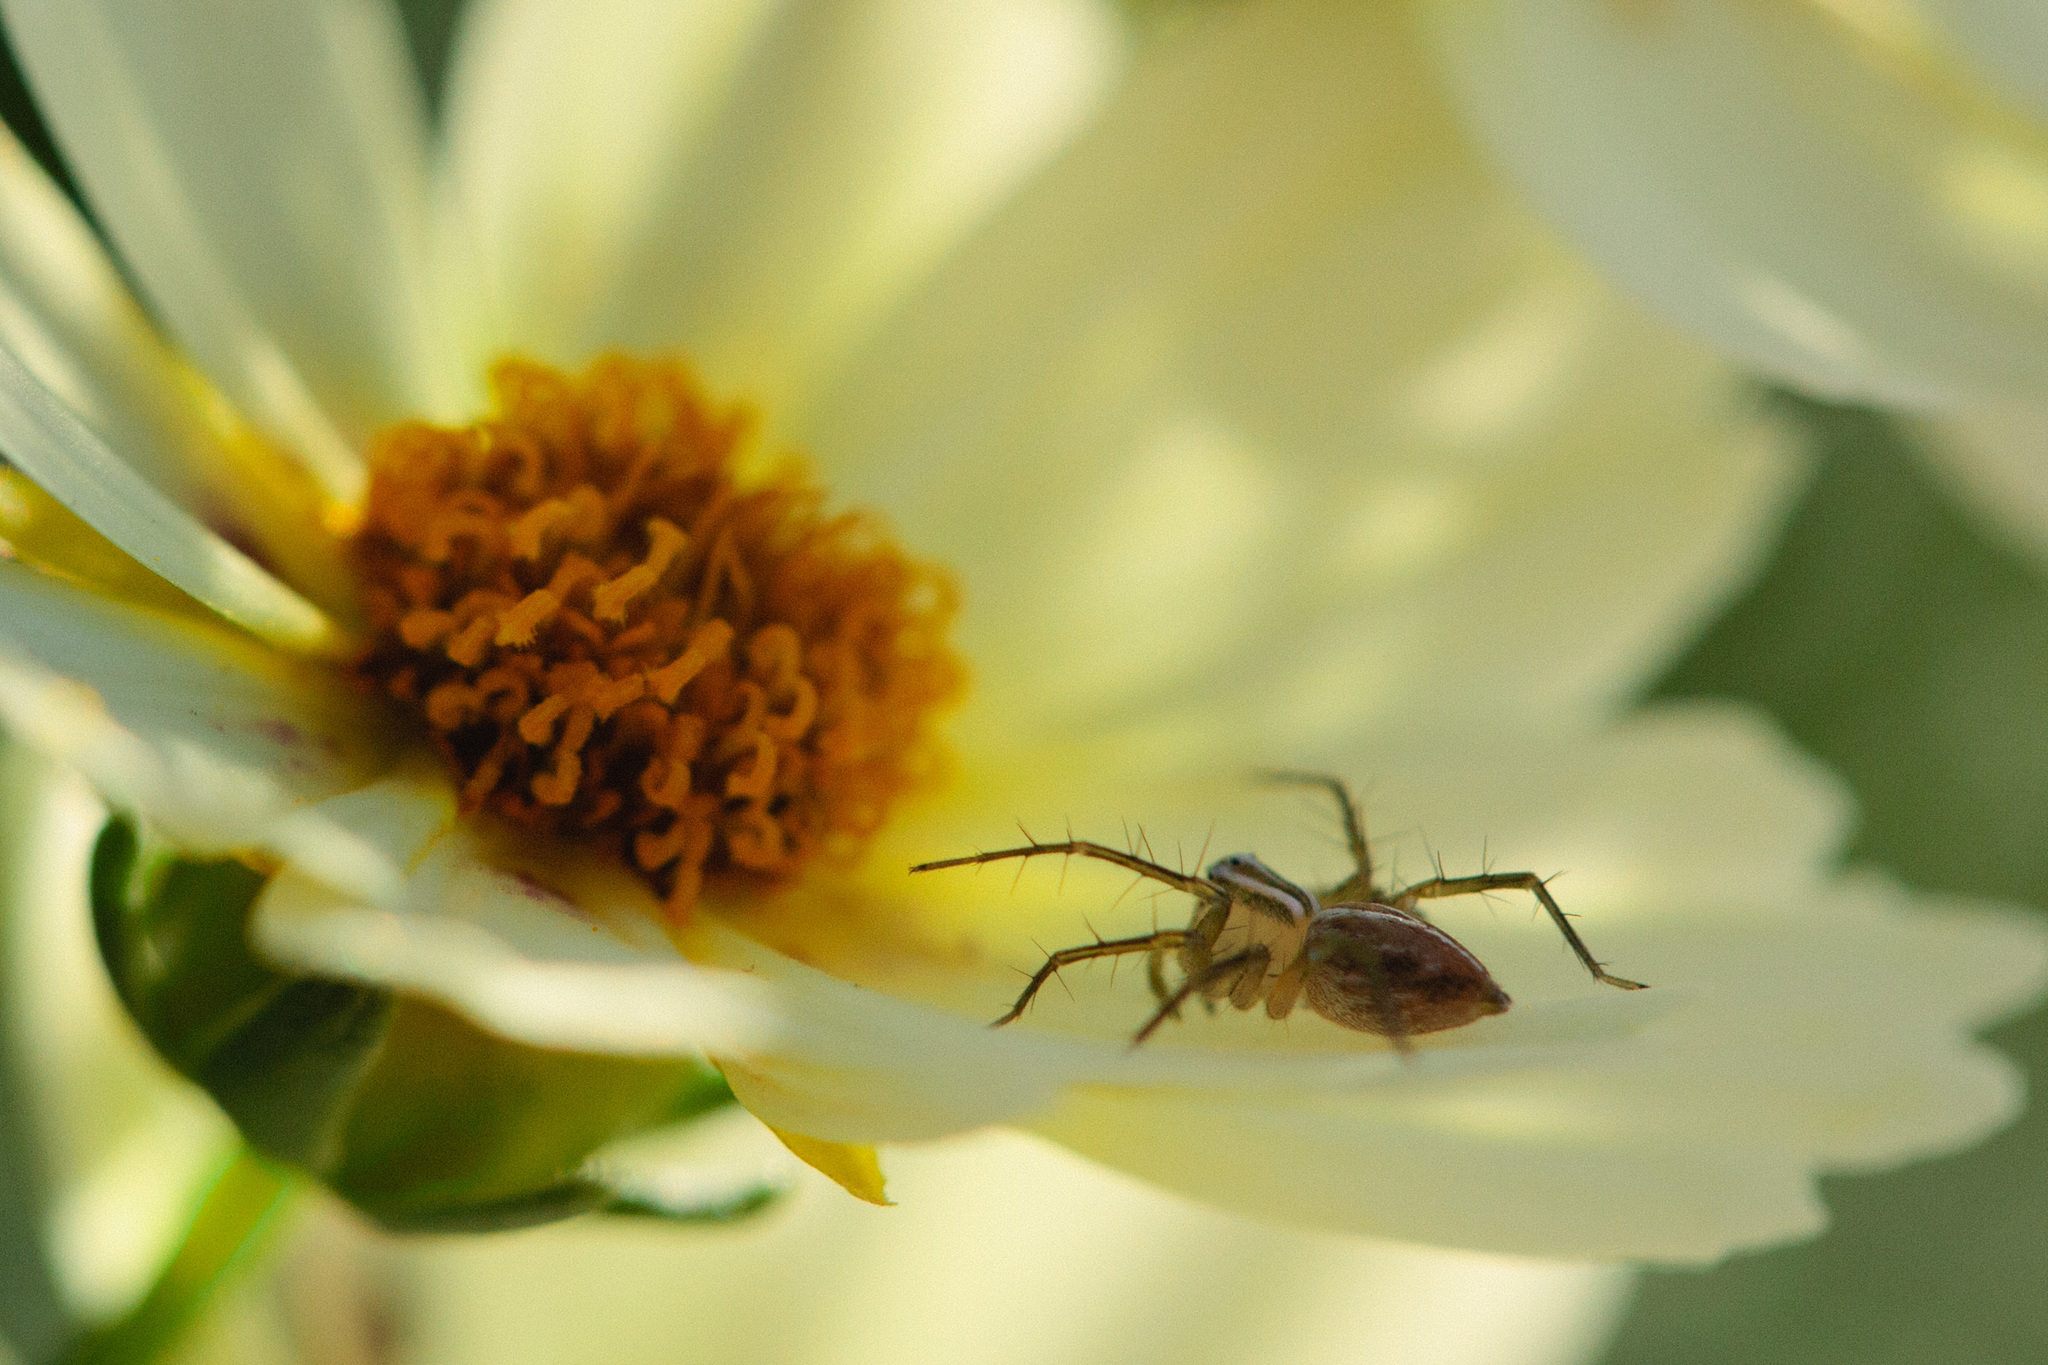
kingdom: Animalia
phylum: Arthropoda
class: Arachnida
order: Araneae
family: Oxyopidae
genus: Oxyopes
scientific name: Oxyopes salticus
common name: Lynx spiders
